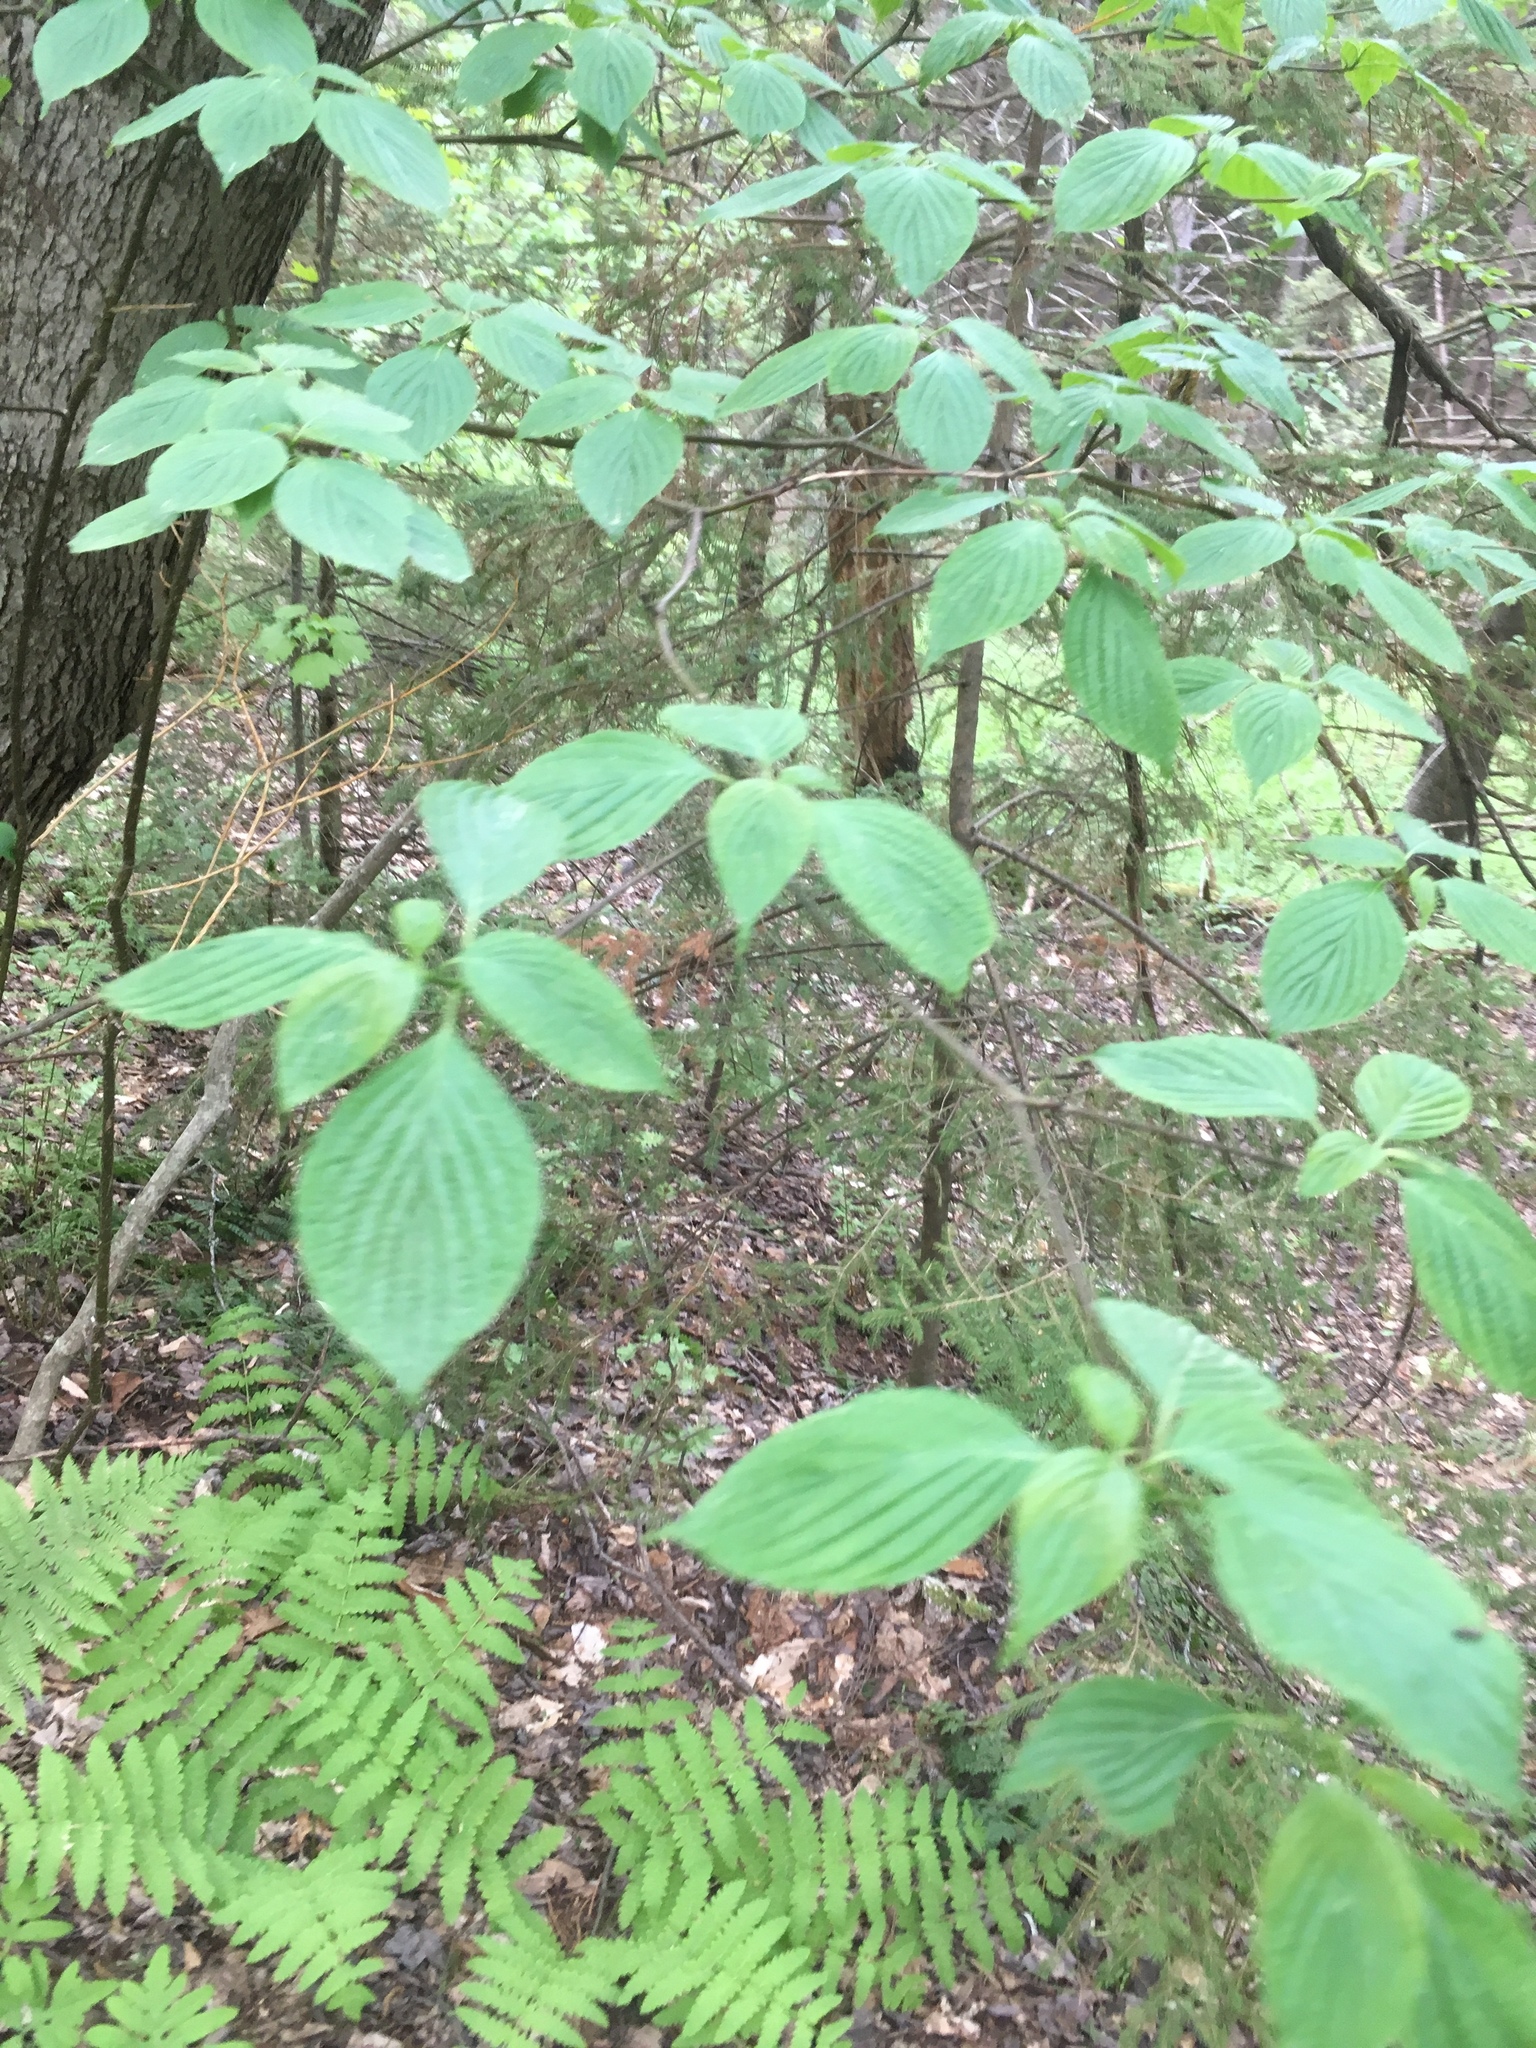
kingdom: Plantae
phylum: Tracheophyta
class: Magnoliopsida
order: Cornales
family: Cornaceae
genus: Cornus
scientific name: Cornus alternifolia
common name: Pagoda dogwood
